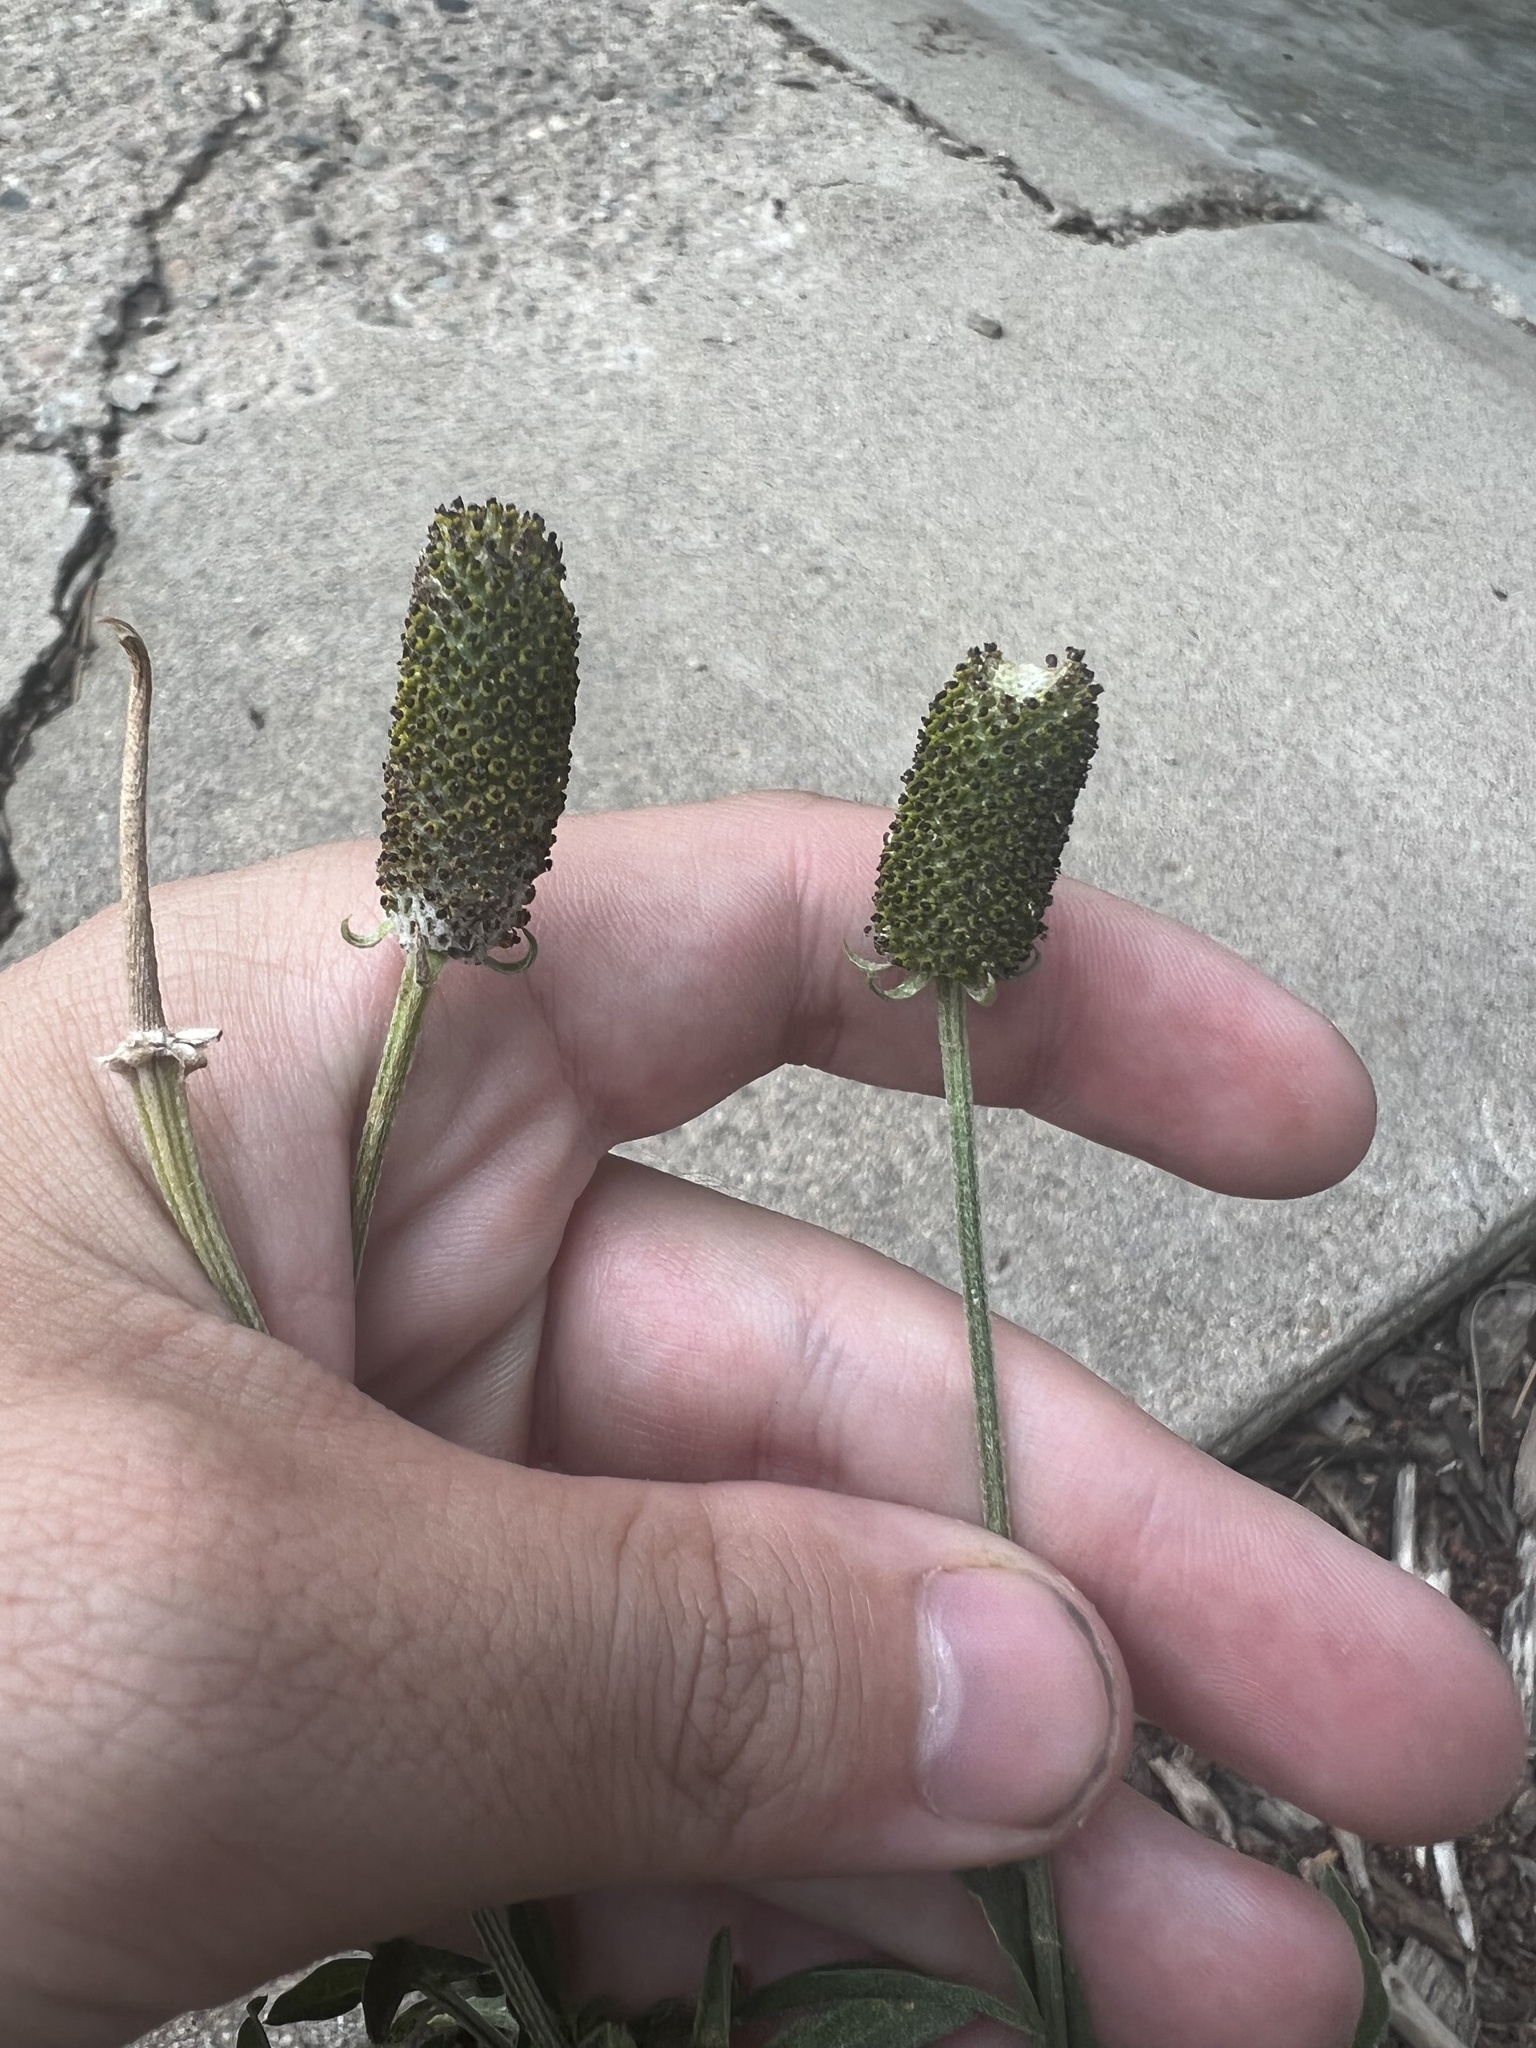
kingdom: Plantae
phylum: Tracheophyta
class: Magnoliopsida
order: Asterales
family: Asteraceae
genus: Ratibida
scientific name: Ratibida columnifera
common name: Prairie coneflower
